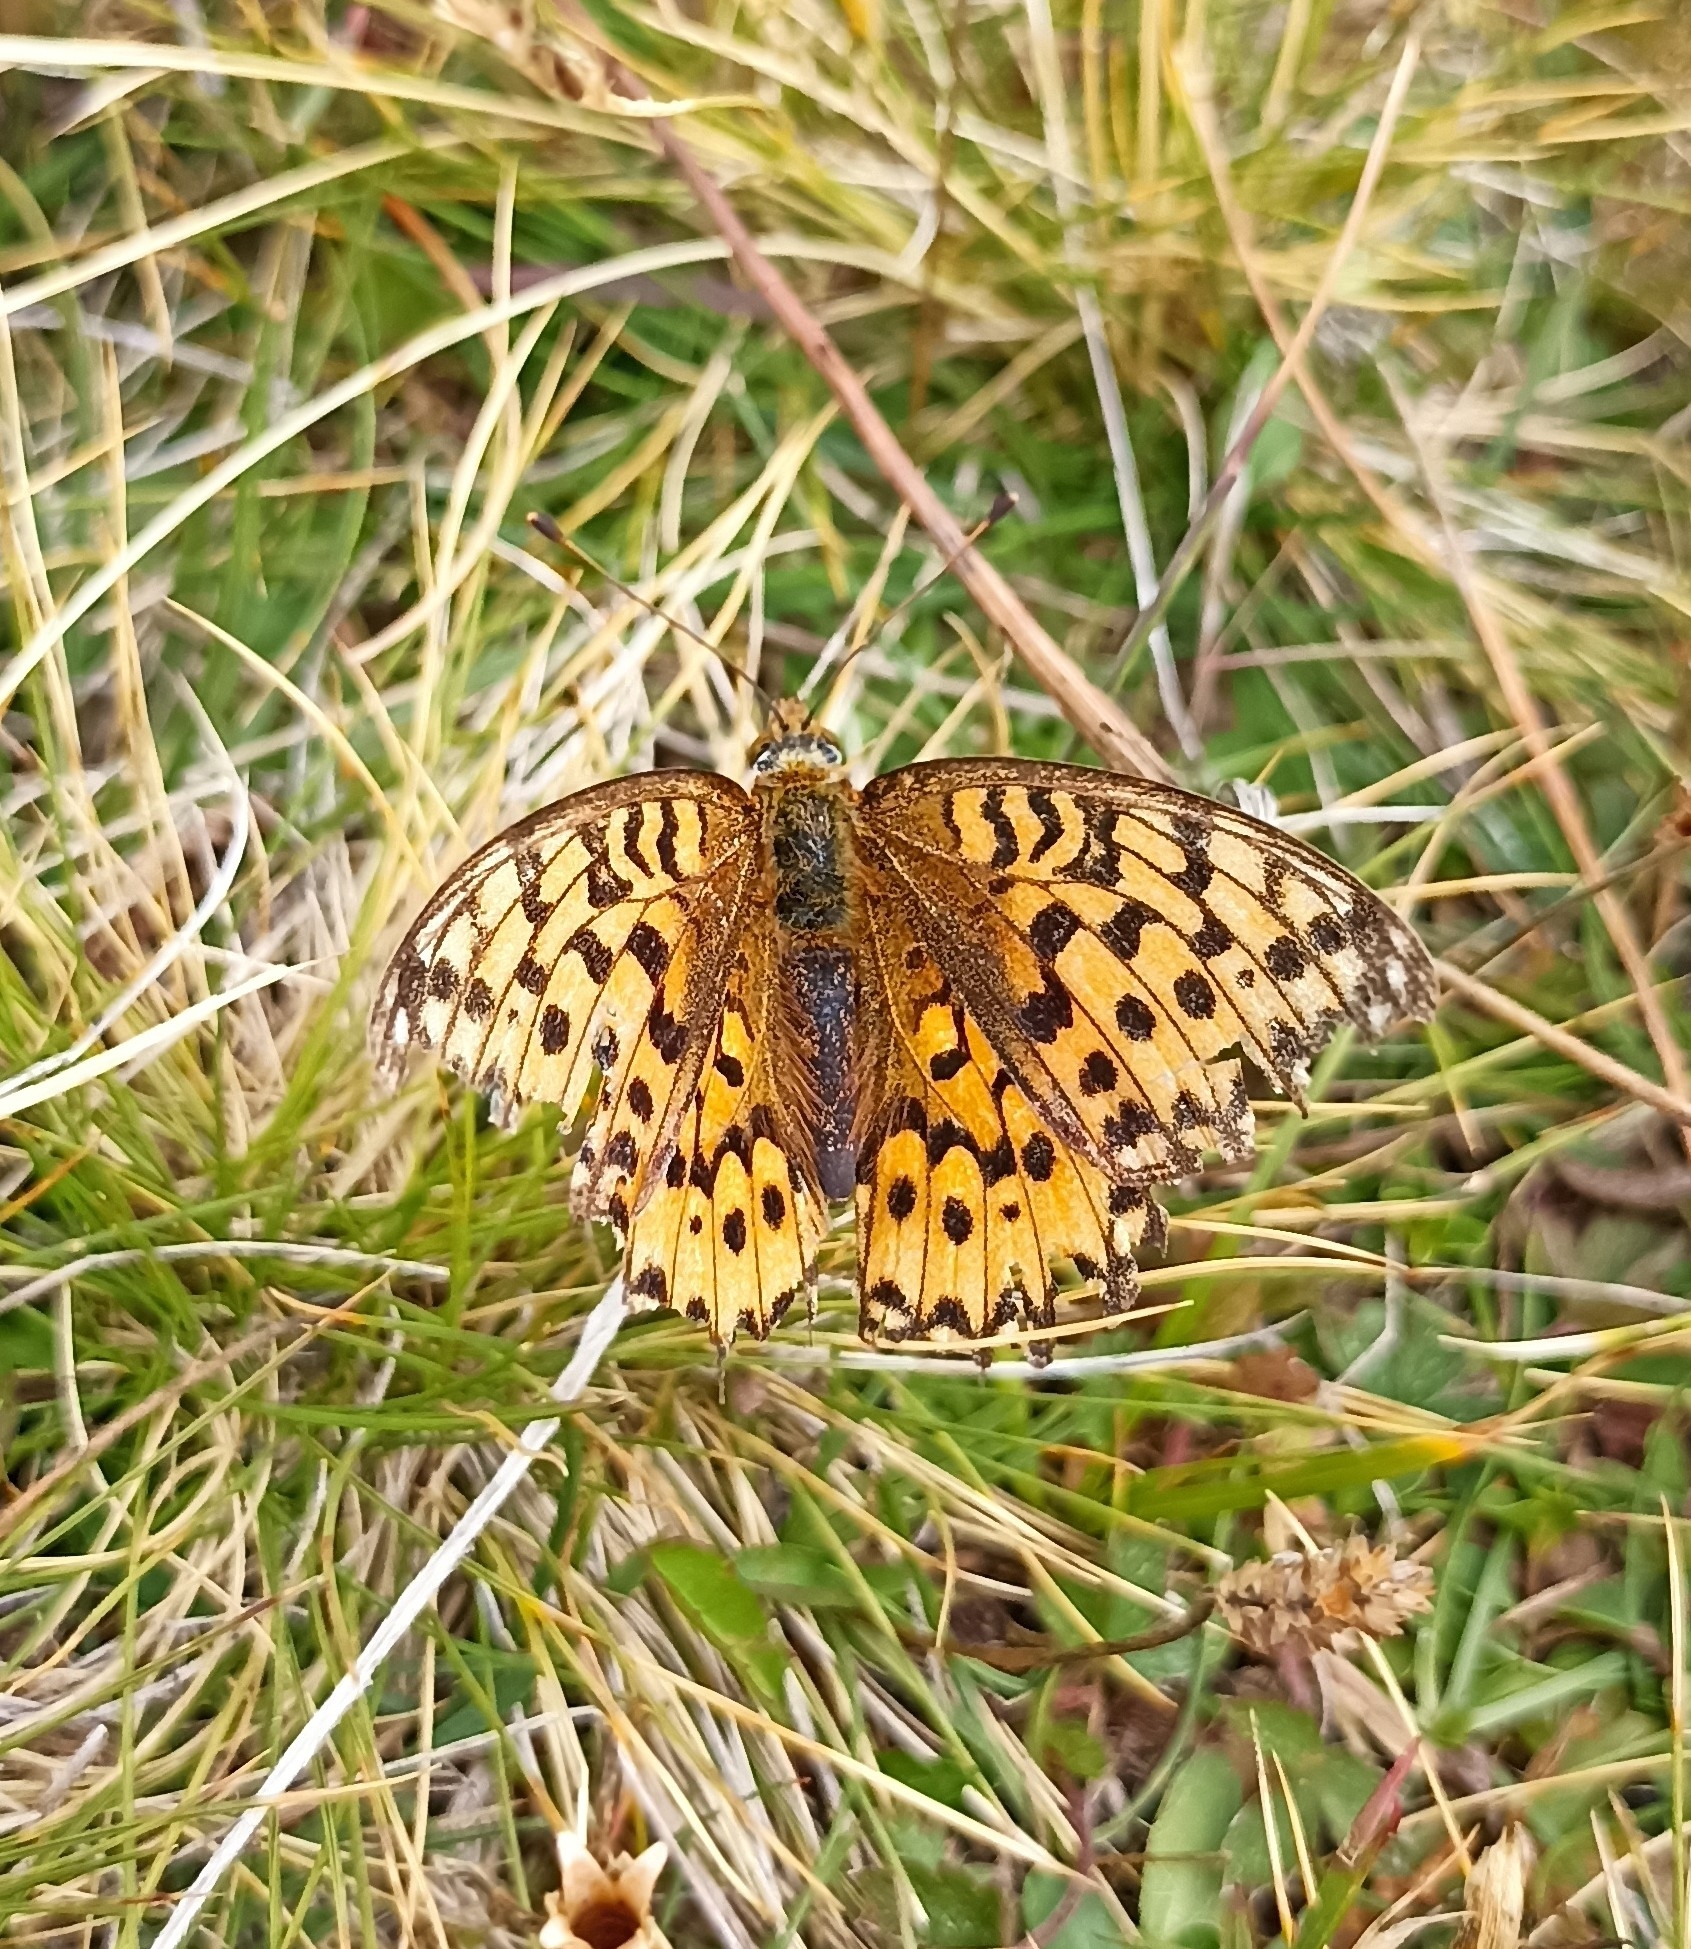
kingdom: Animalia
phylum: Arthropoda
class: Insecta
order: Lepidoptera
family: Nymphalidae
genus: Speyeria
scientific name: Speyeria aglaja
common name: Dark green fritillary
